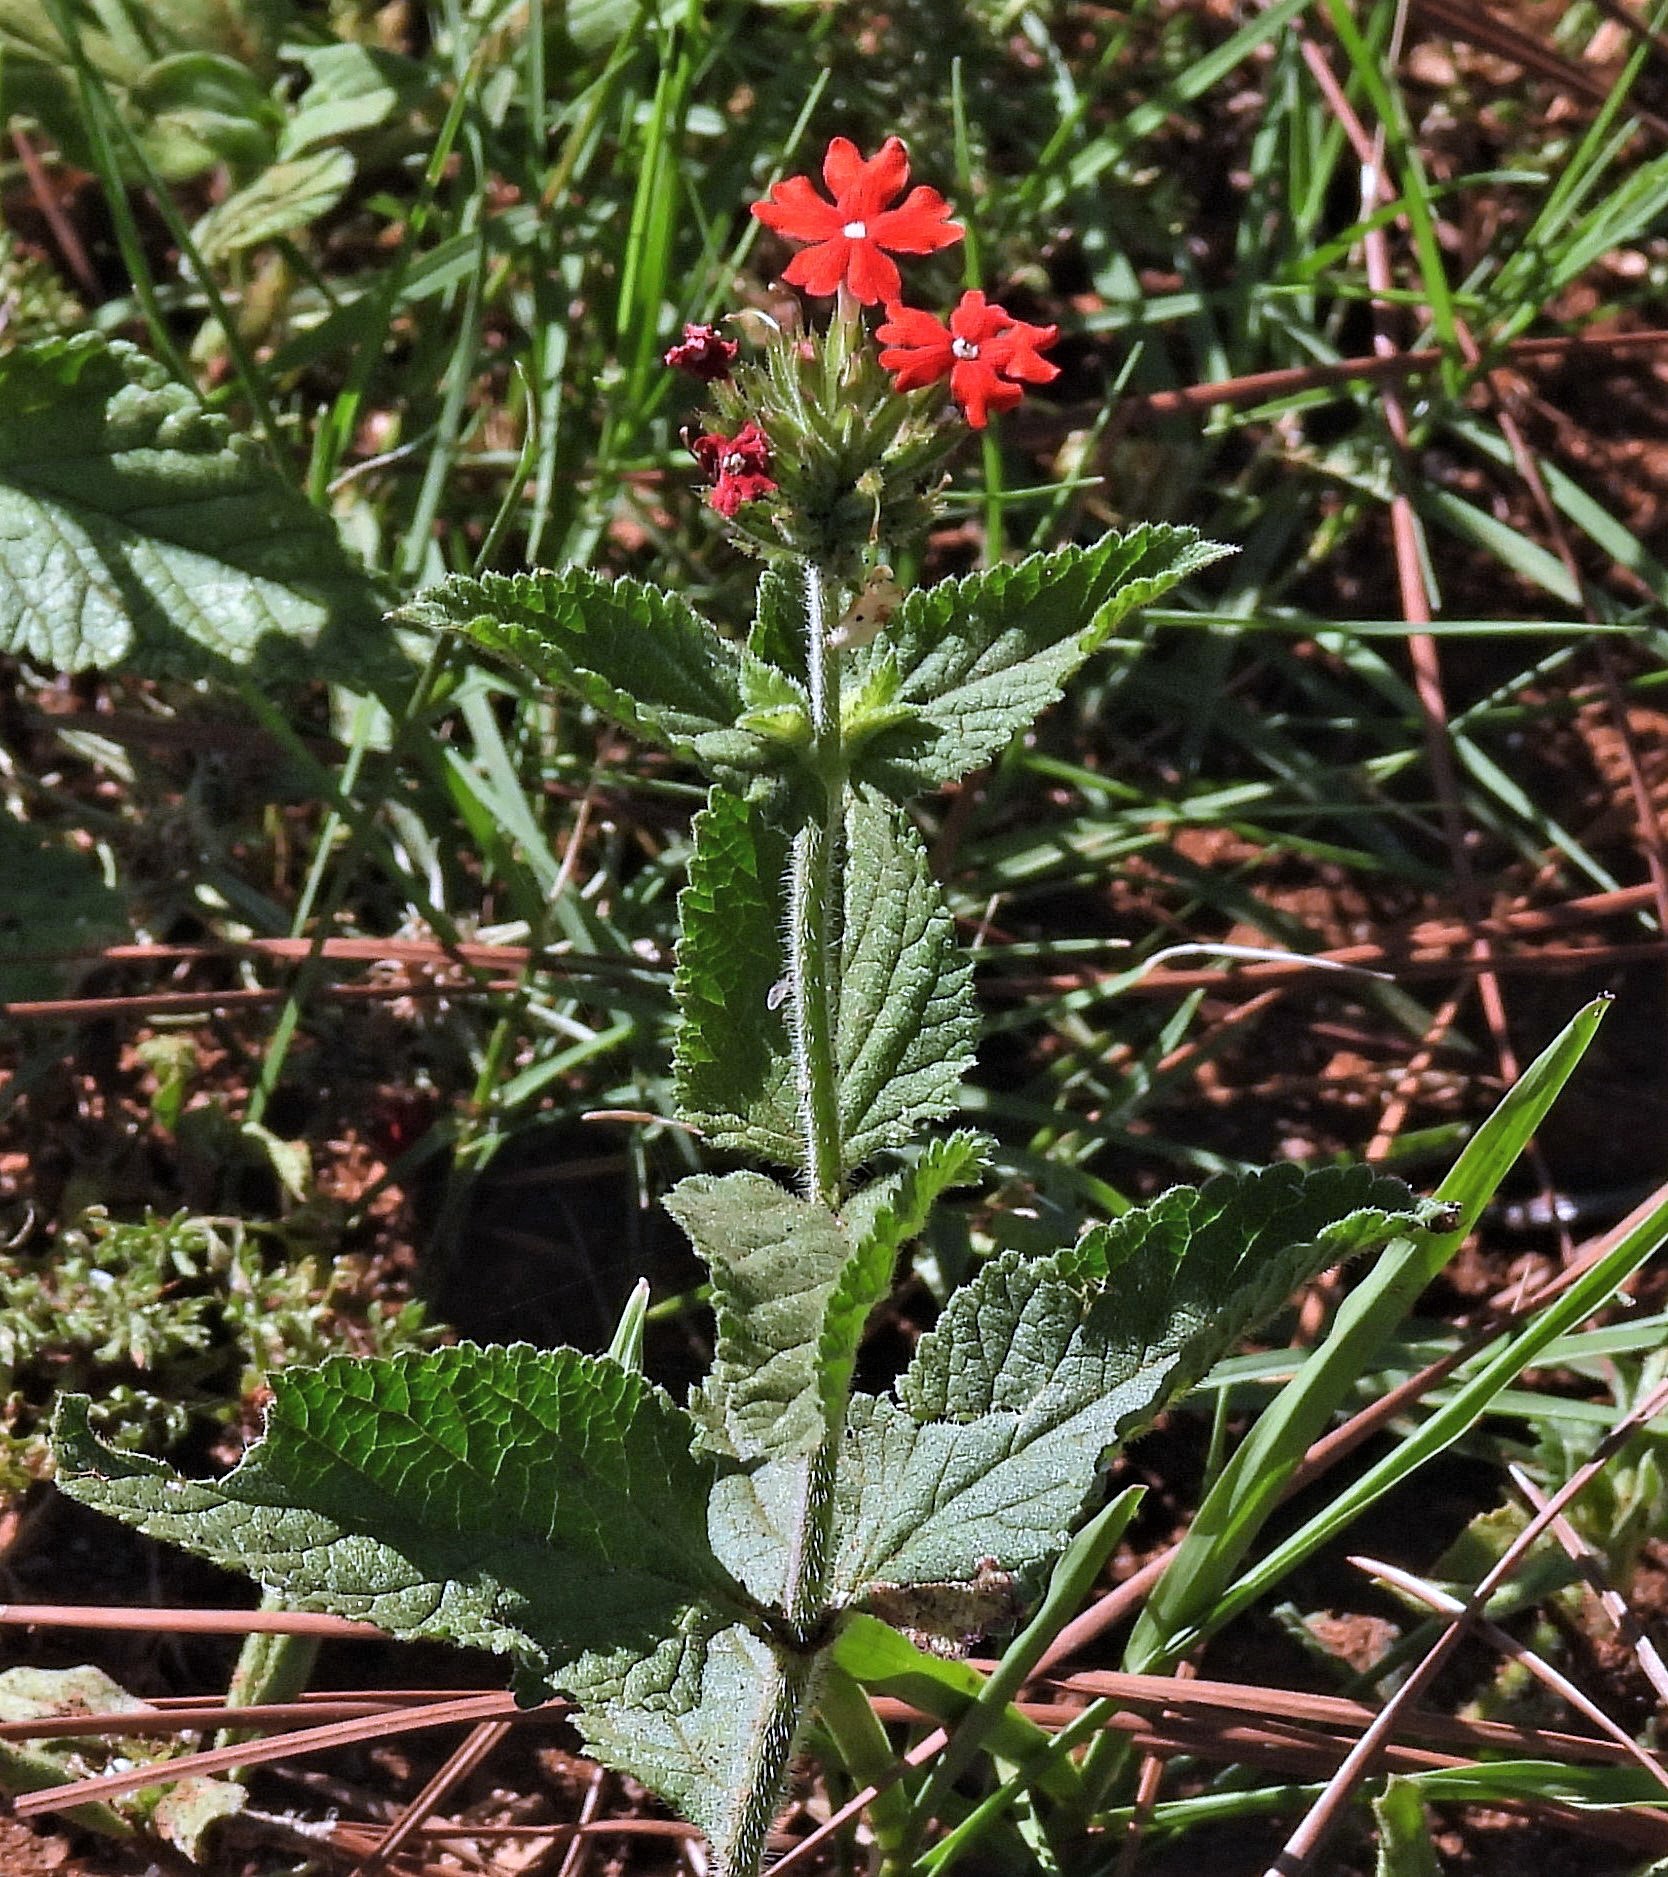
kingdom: Plantae
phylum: Tracheophyta
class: Magnoliopsida
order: Lamiales
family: Verbenaceae
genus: Verbena
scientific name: Verbena peruviana
